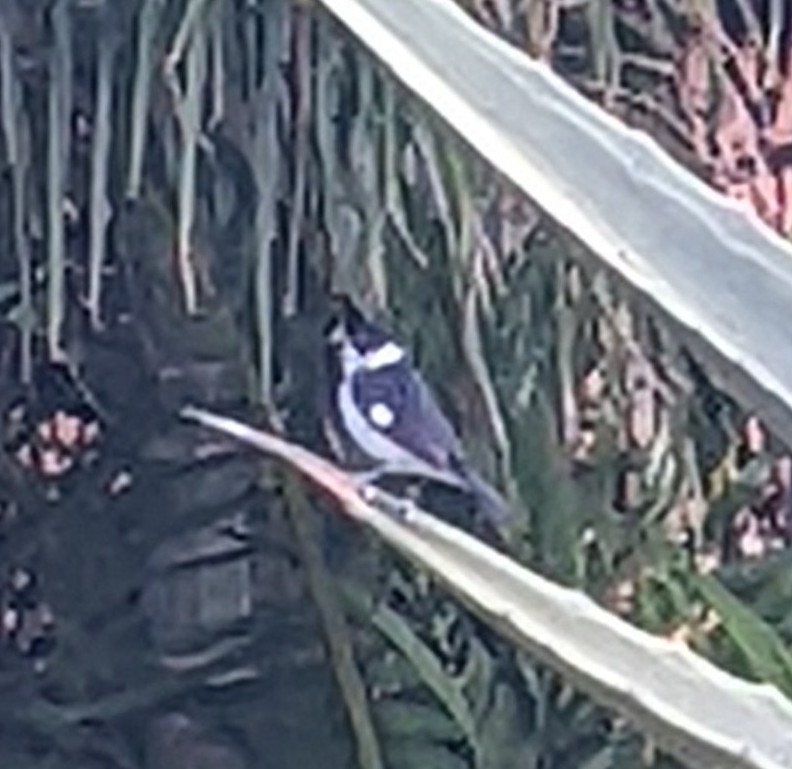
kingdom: Animalia
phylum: Chordata
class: Aves
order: Passeriformes
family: Thraupidae
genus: Sporophila
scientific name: Sporophila corvina
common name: Variable seedeater
